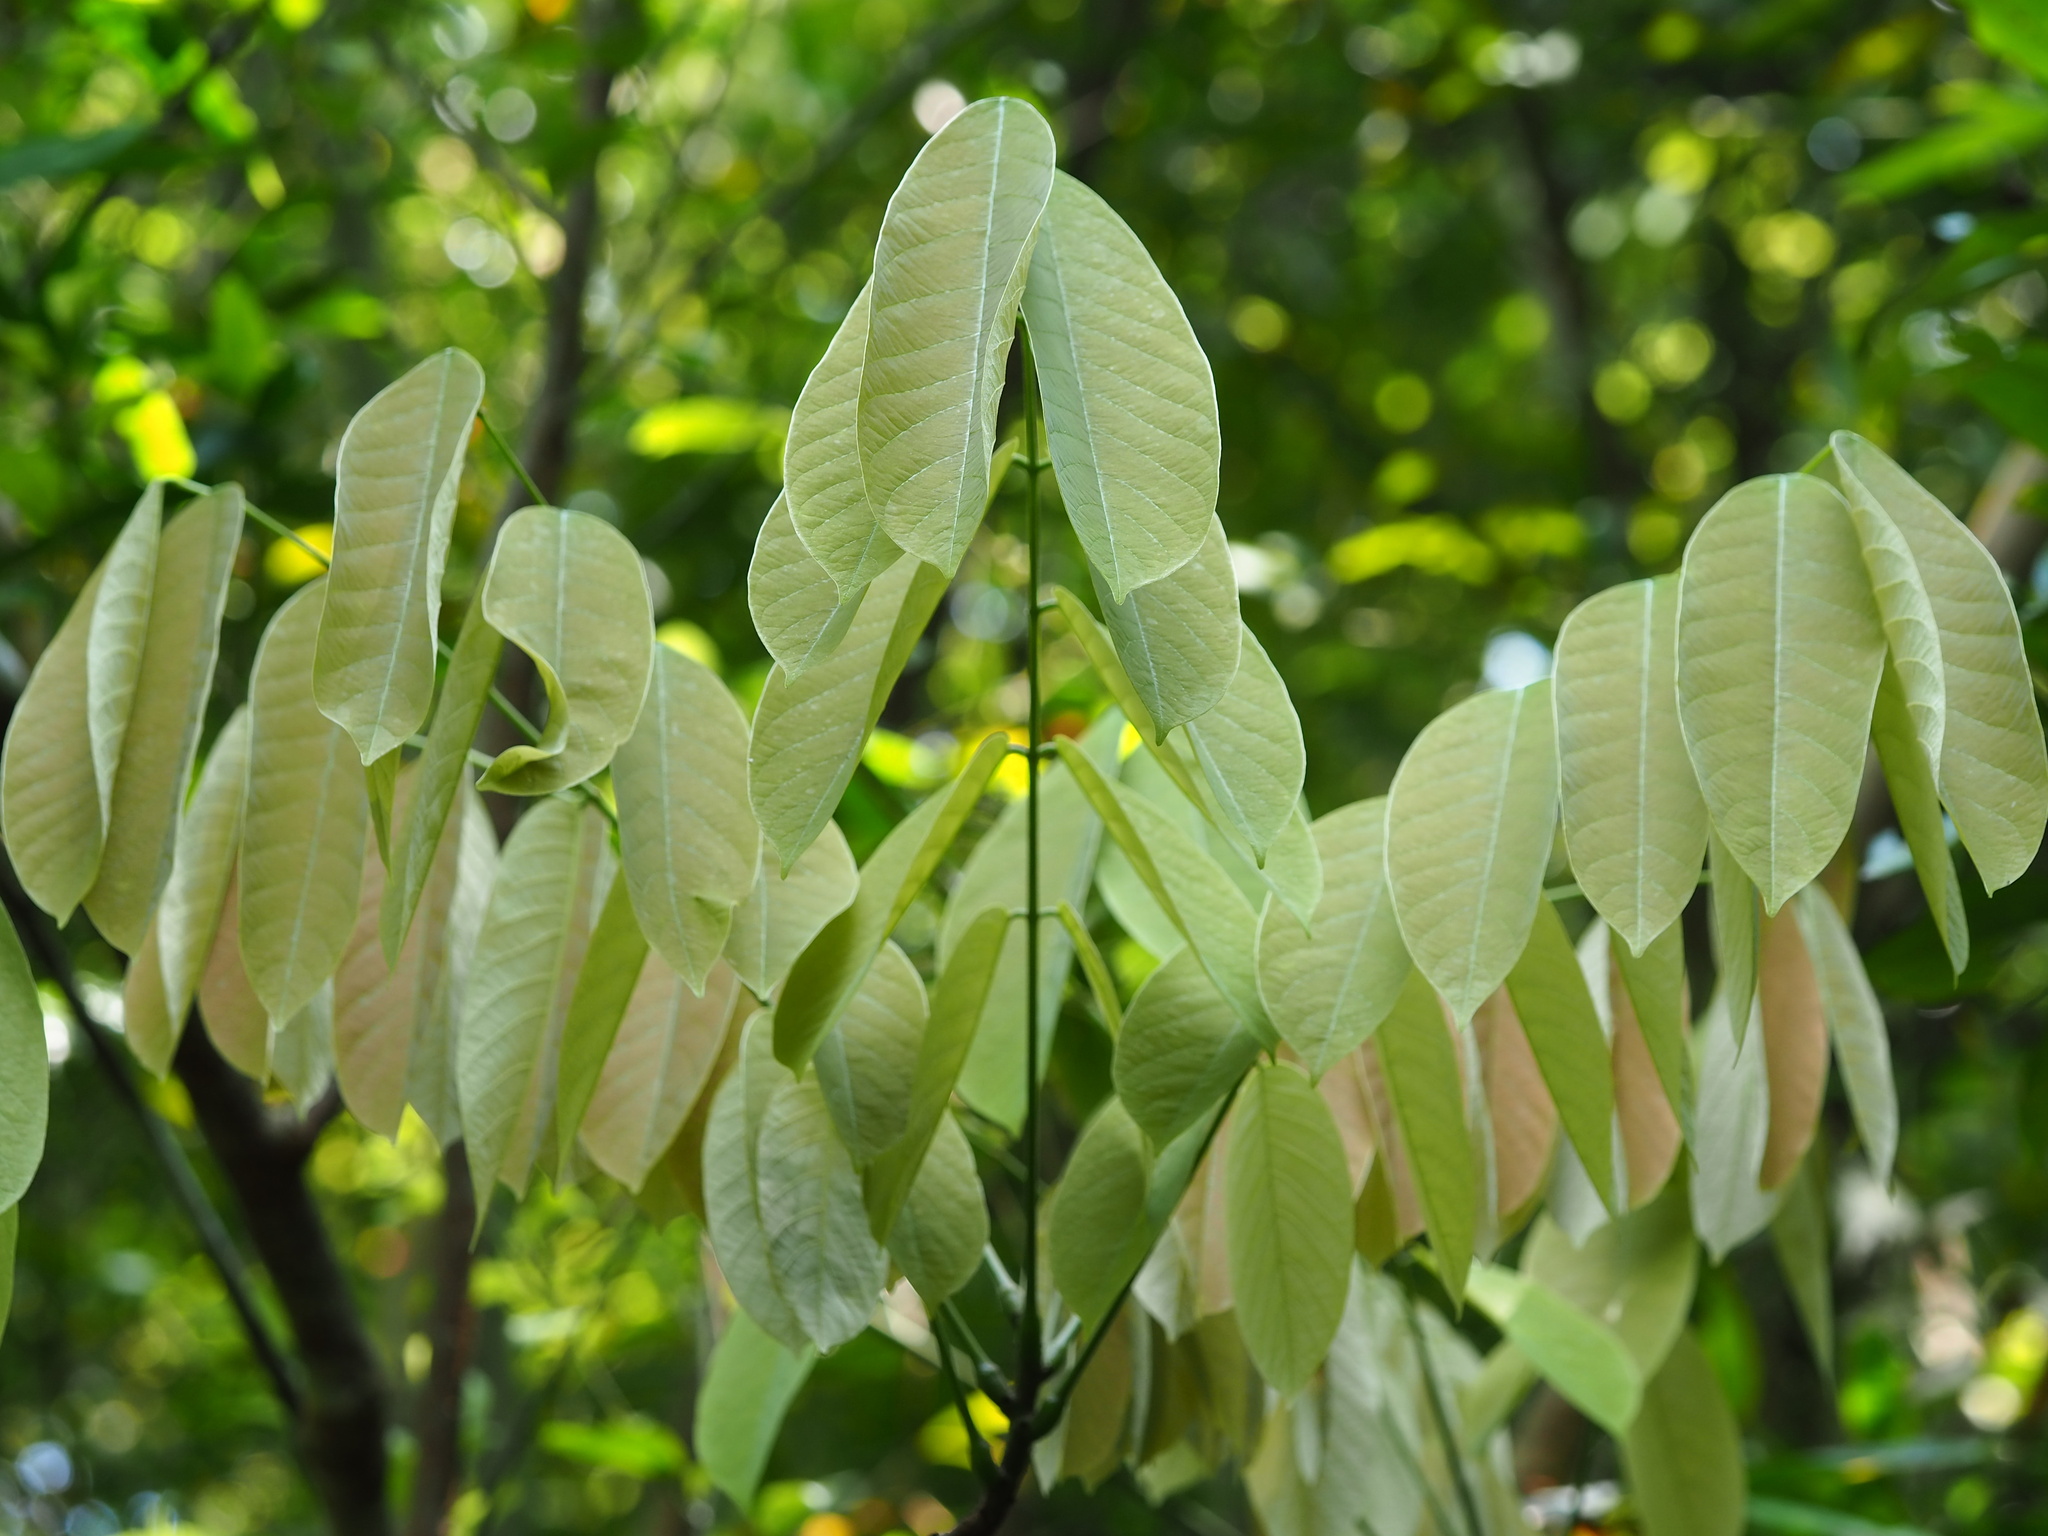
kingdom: Plantae
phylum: Tracheophyta
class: Magnoliopsida
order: Fabales
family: Fabaceae
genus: Millettia
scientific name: Millettia pachycarpa
